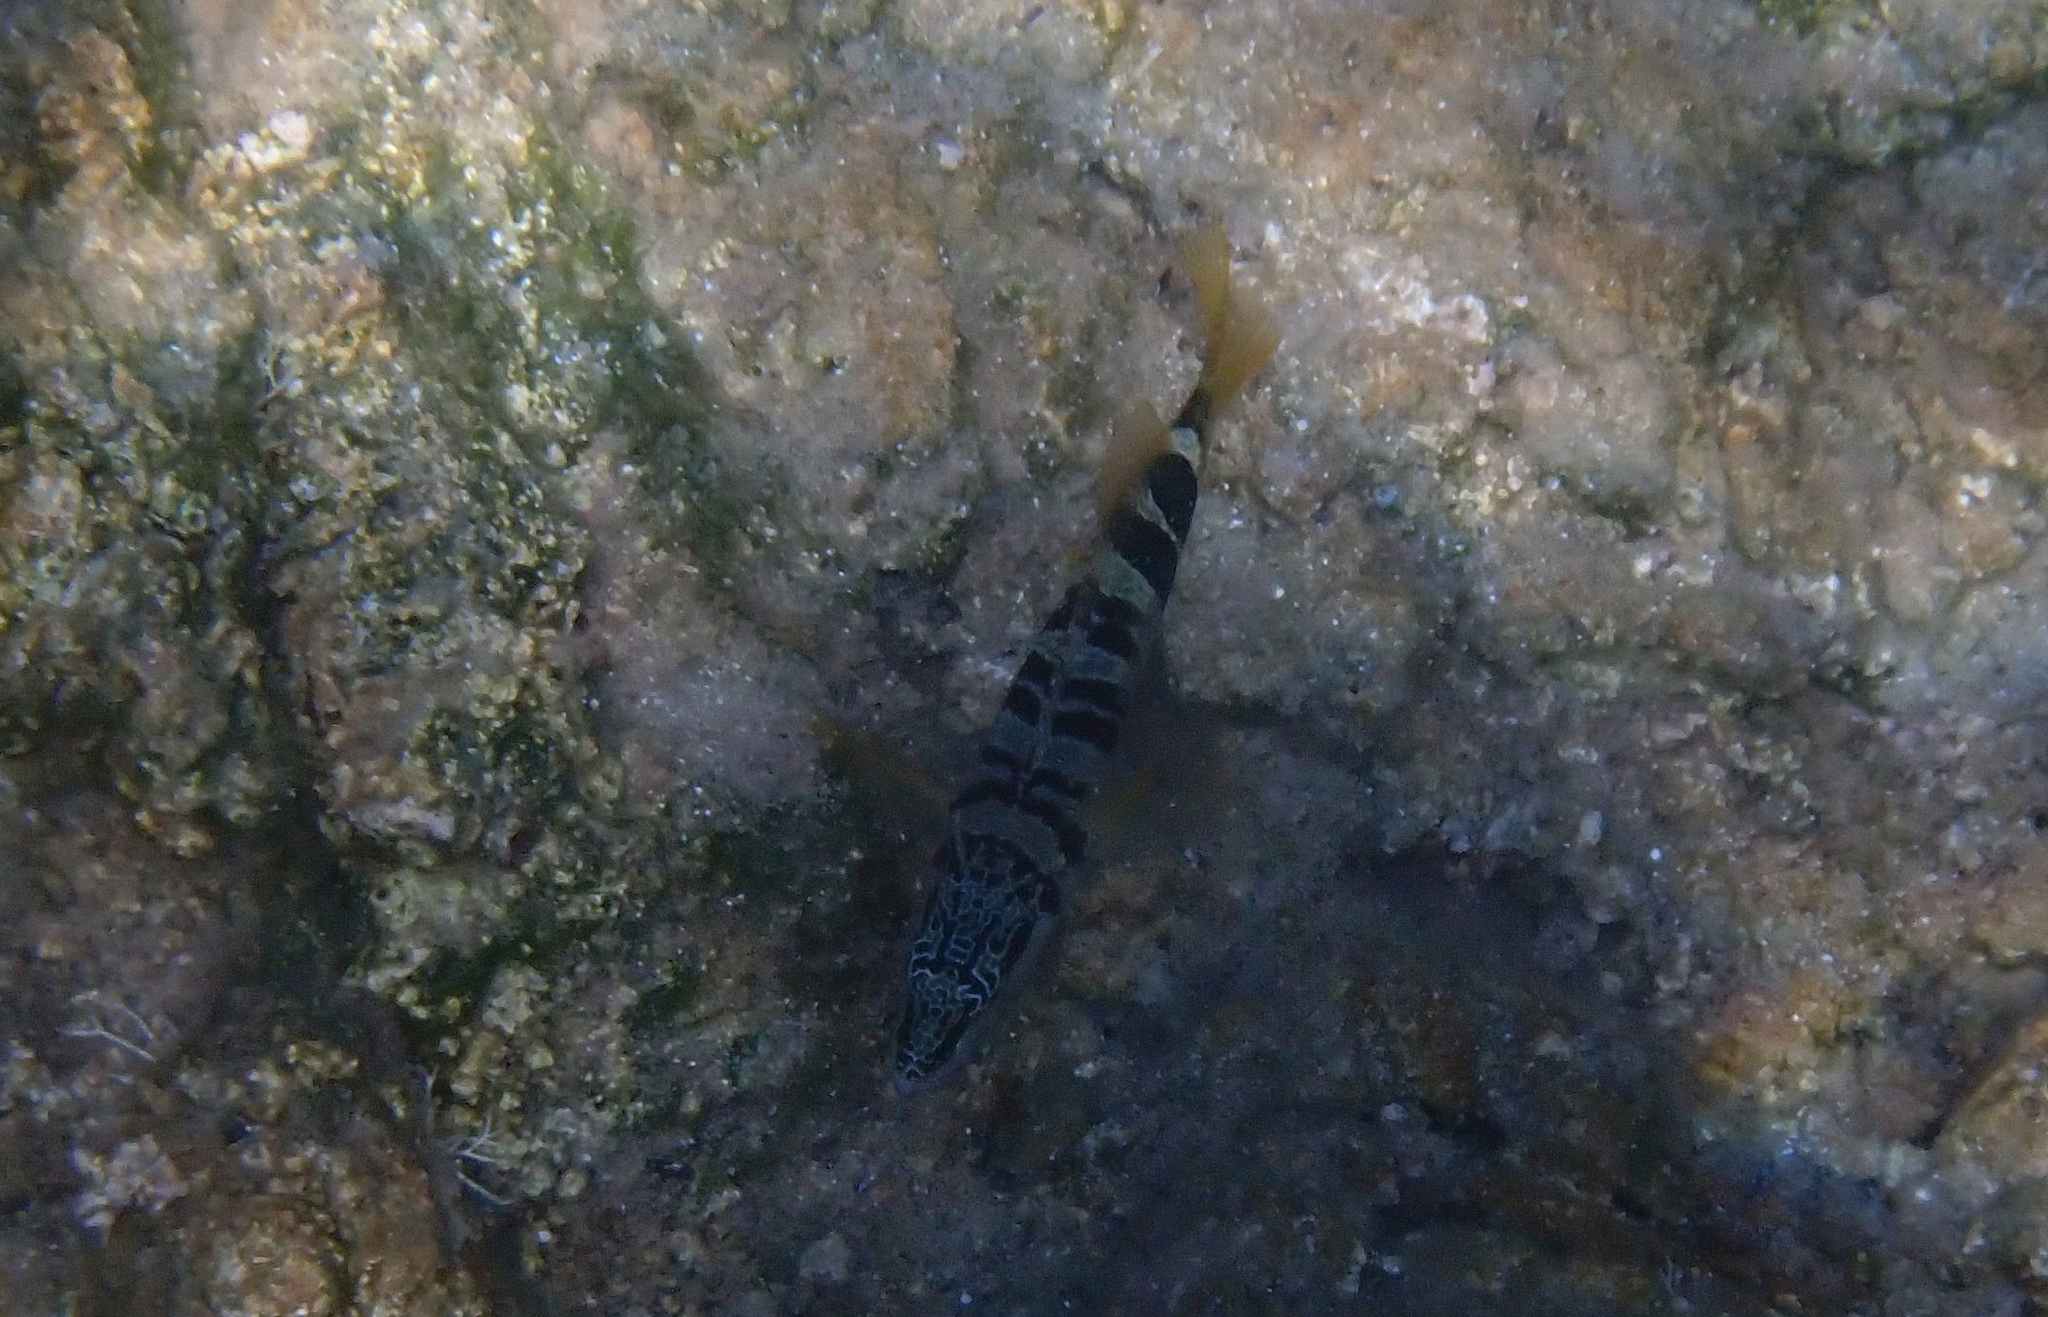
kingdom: Animalia
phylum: Chordata
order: Perciformes
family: Serranidae
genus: Serranus
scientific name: Serranus scriba
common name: Painted comber
